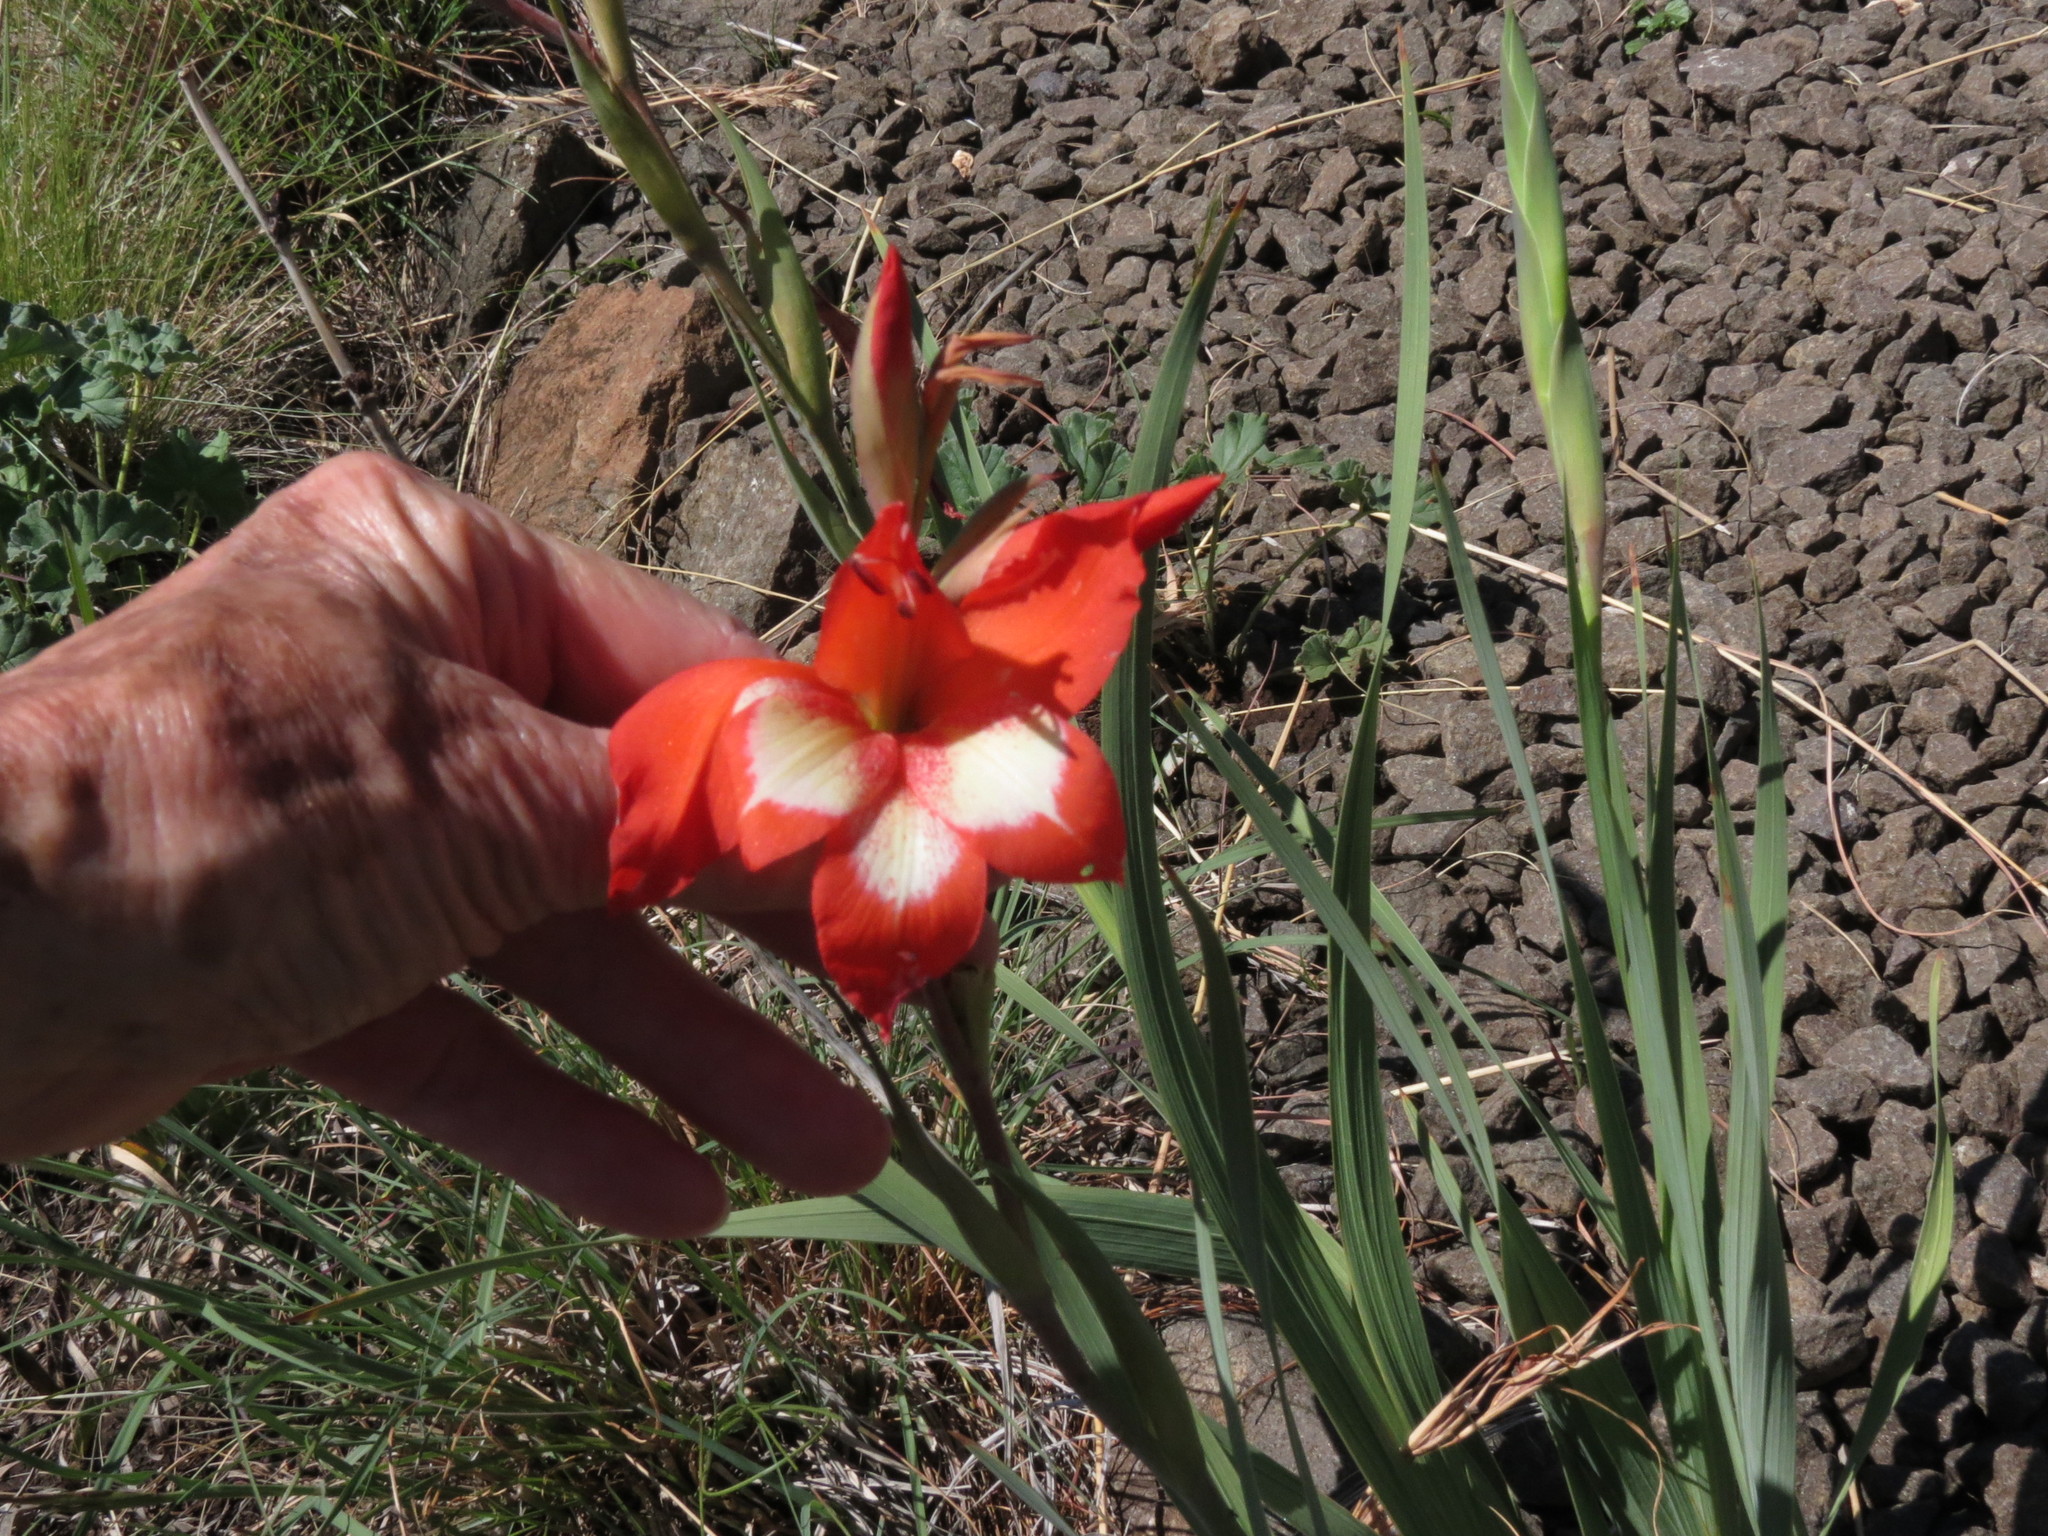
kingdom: Plantae
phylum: Tracheophyta
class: Liliopsida
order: Asparagales
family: Iridaceae
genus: Gladiolus
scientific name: Gladiolus saundersii
